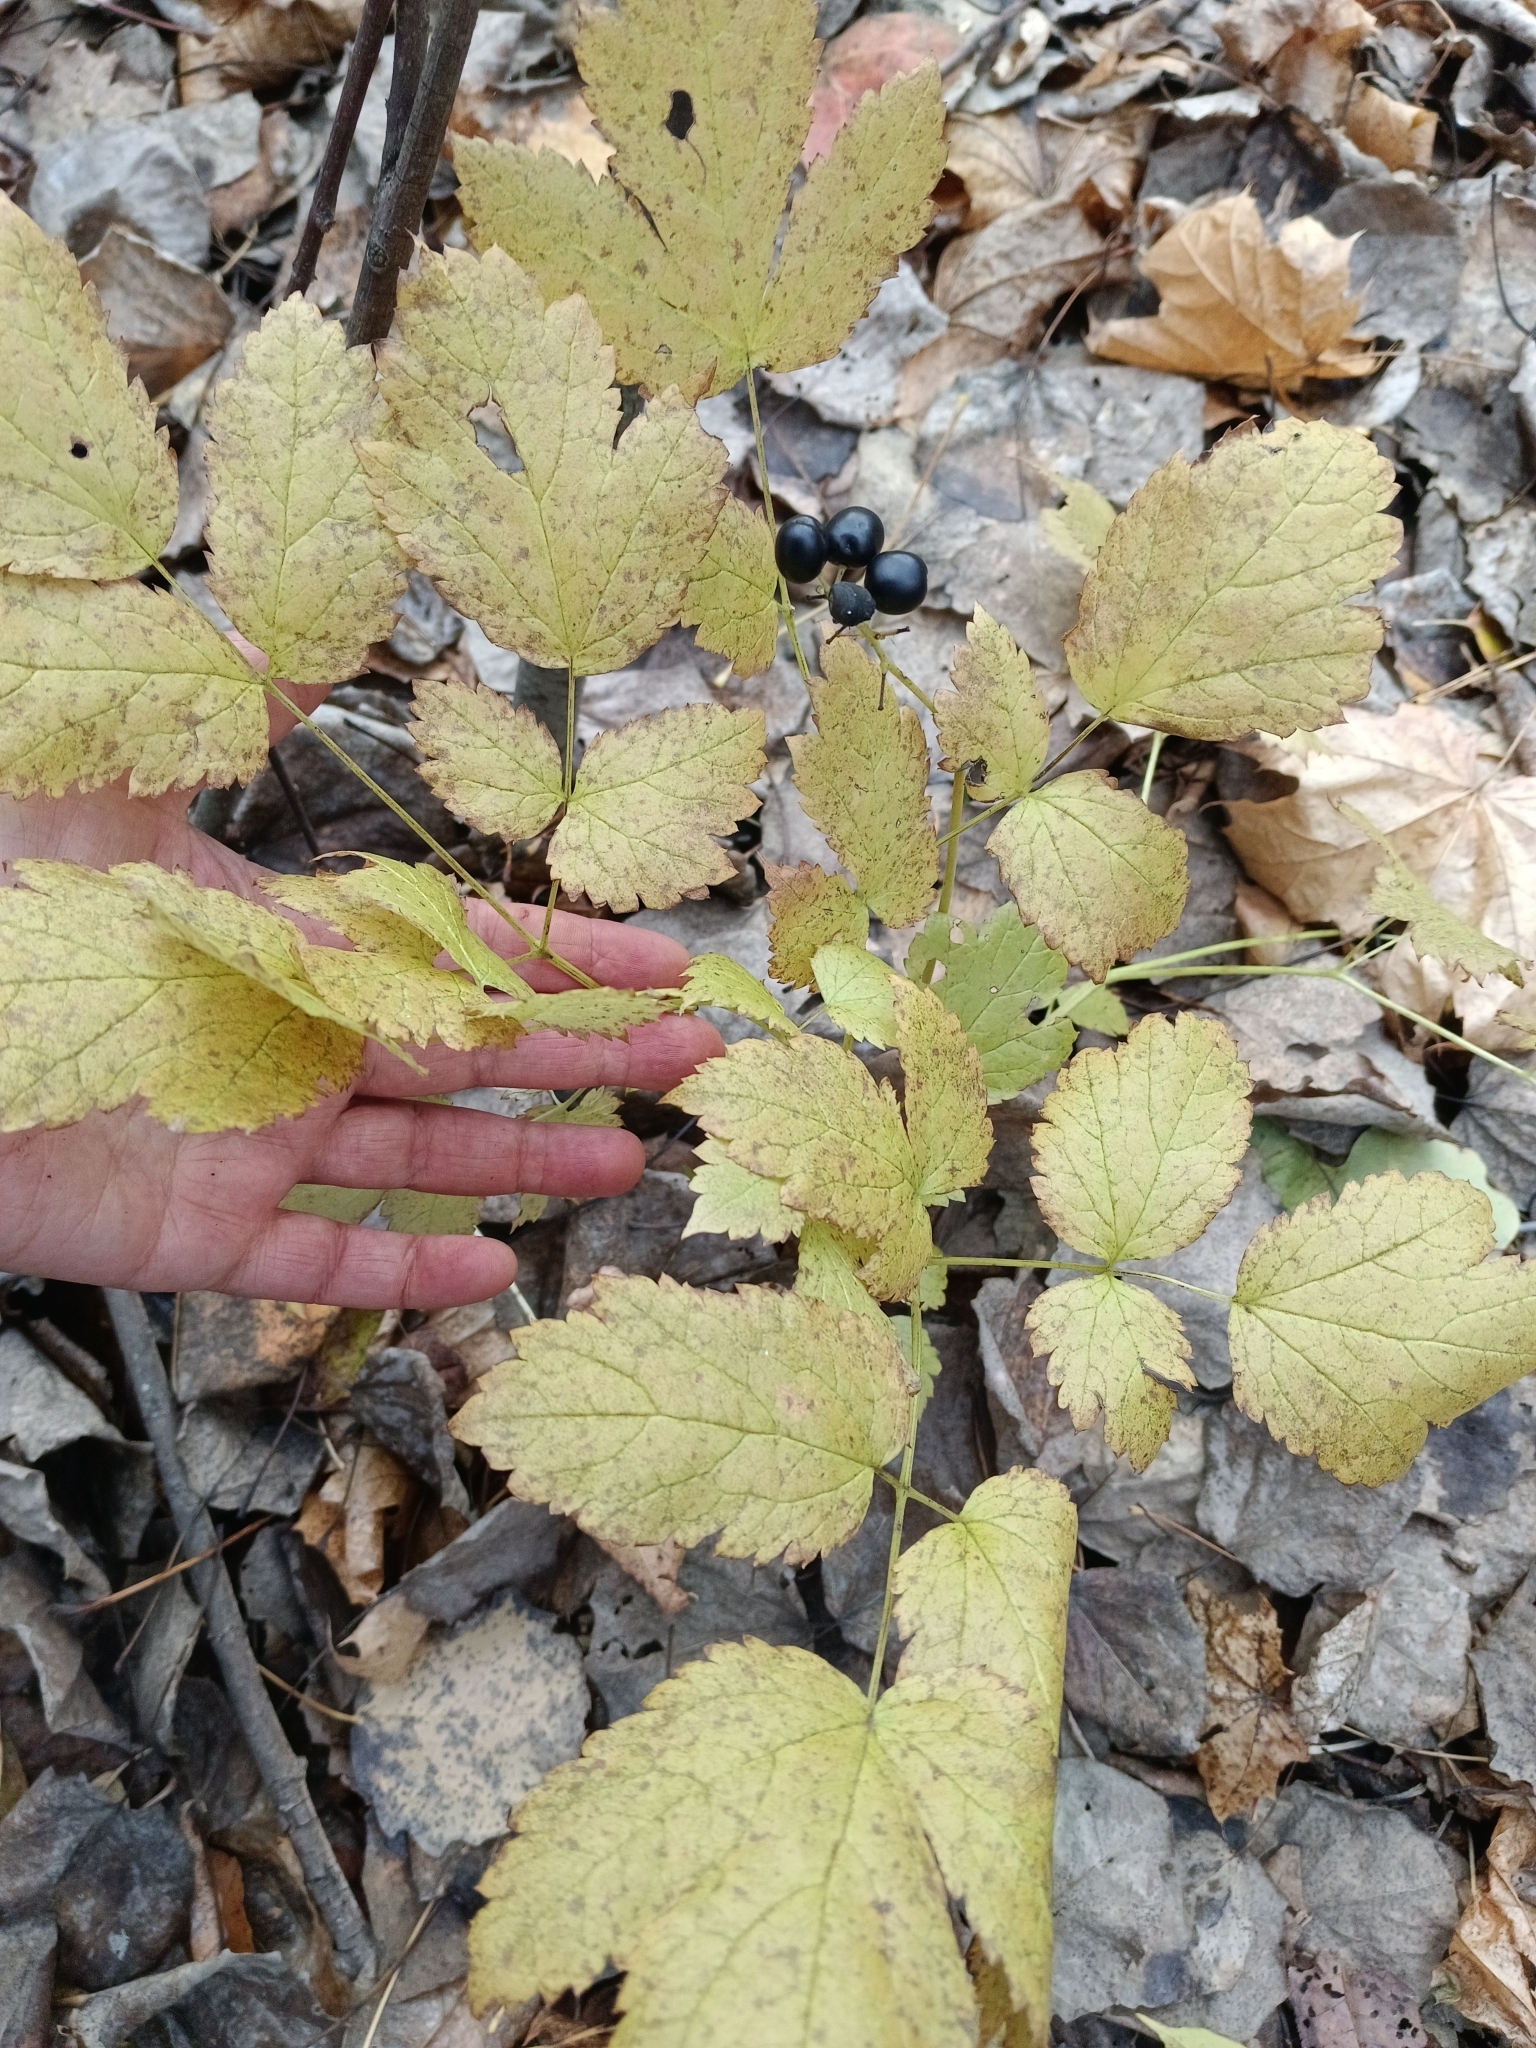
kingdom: Plantae
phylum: Tracheophyta
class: Magnoliopsida
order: Ranunculales
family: Ranunculaceae
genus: Actaea
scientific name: Actaea spicata
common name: Baneberry
